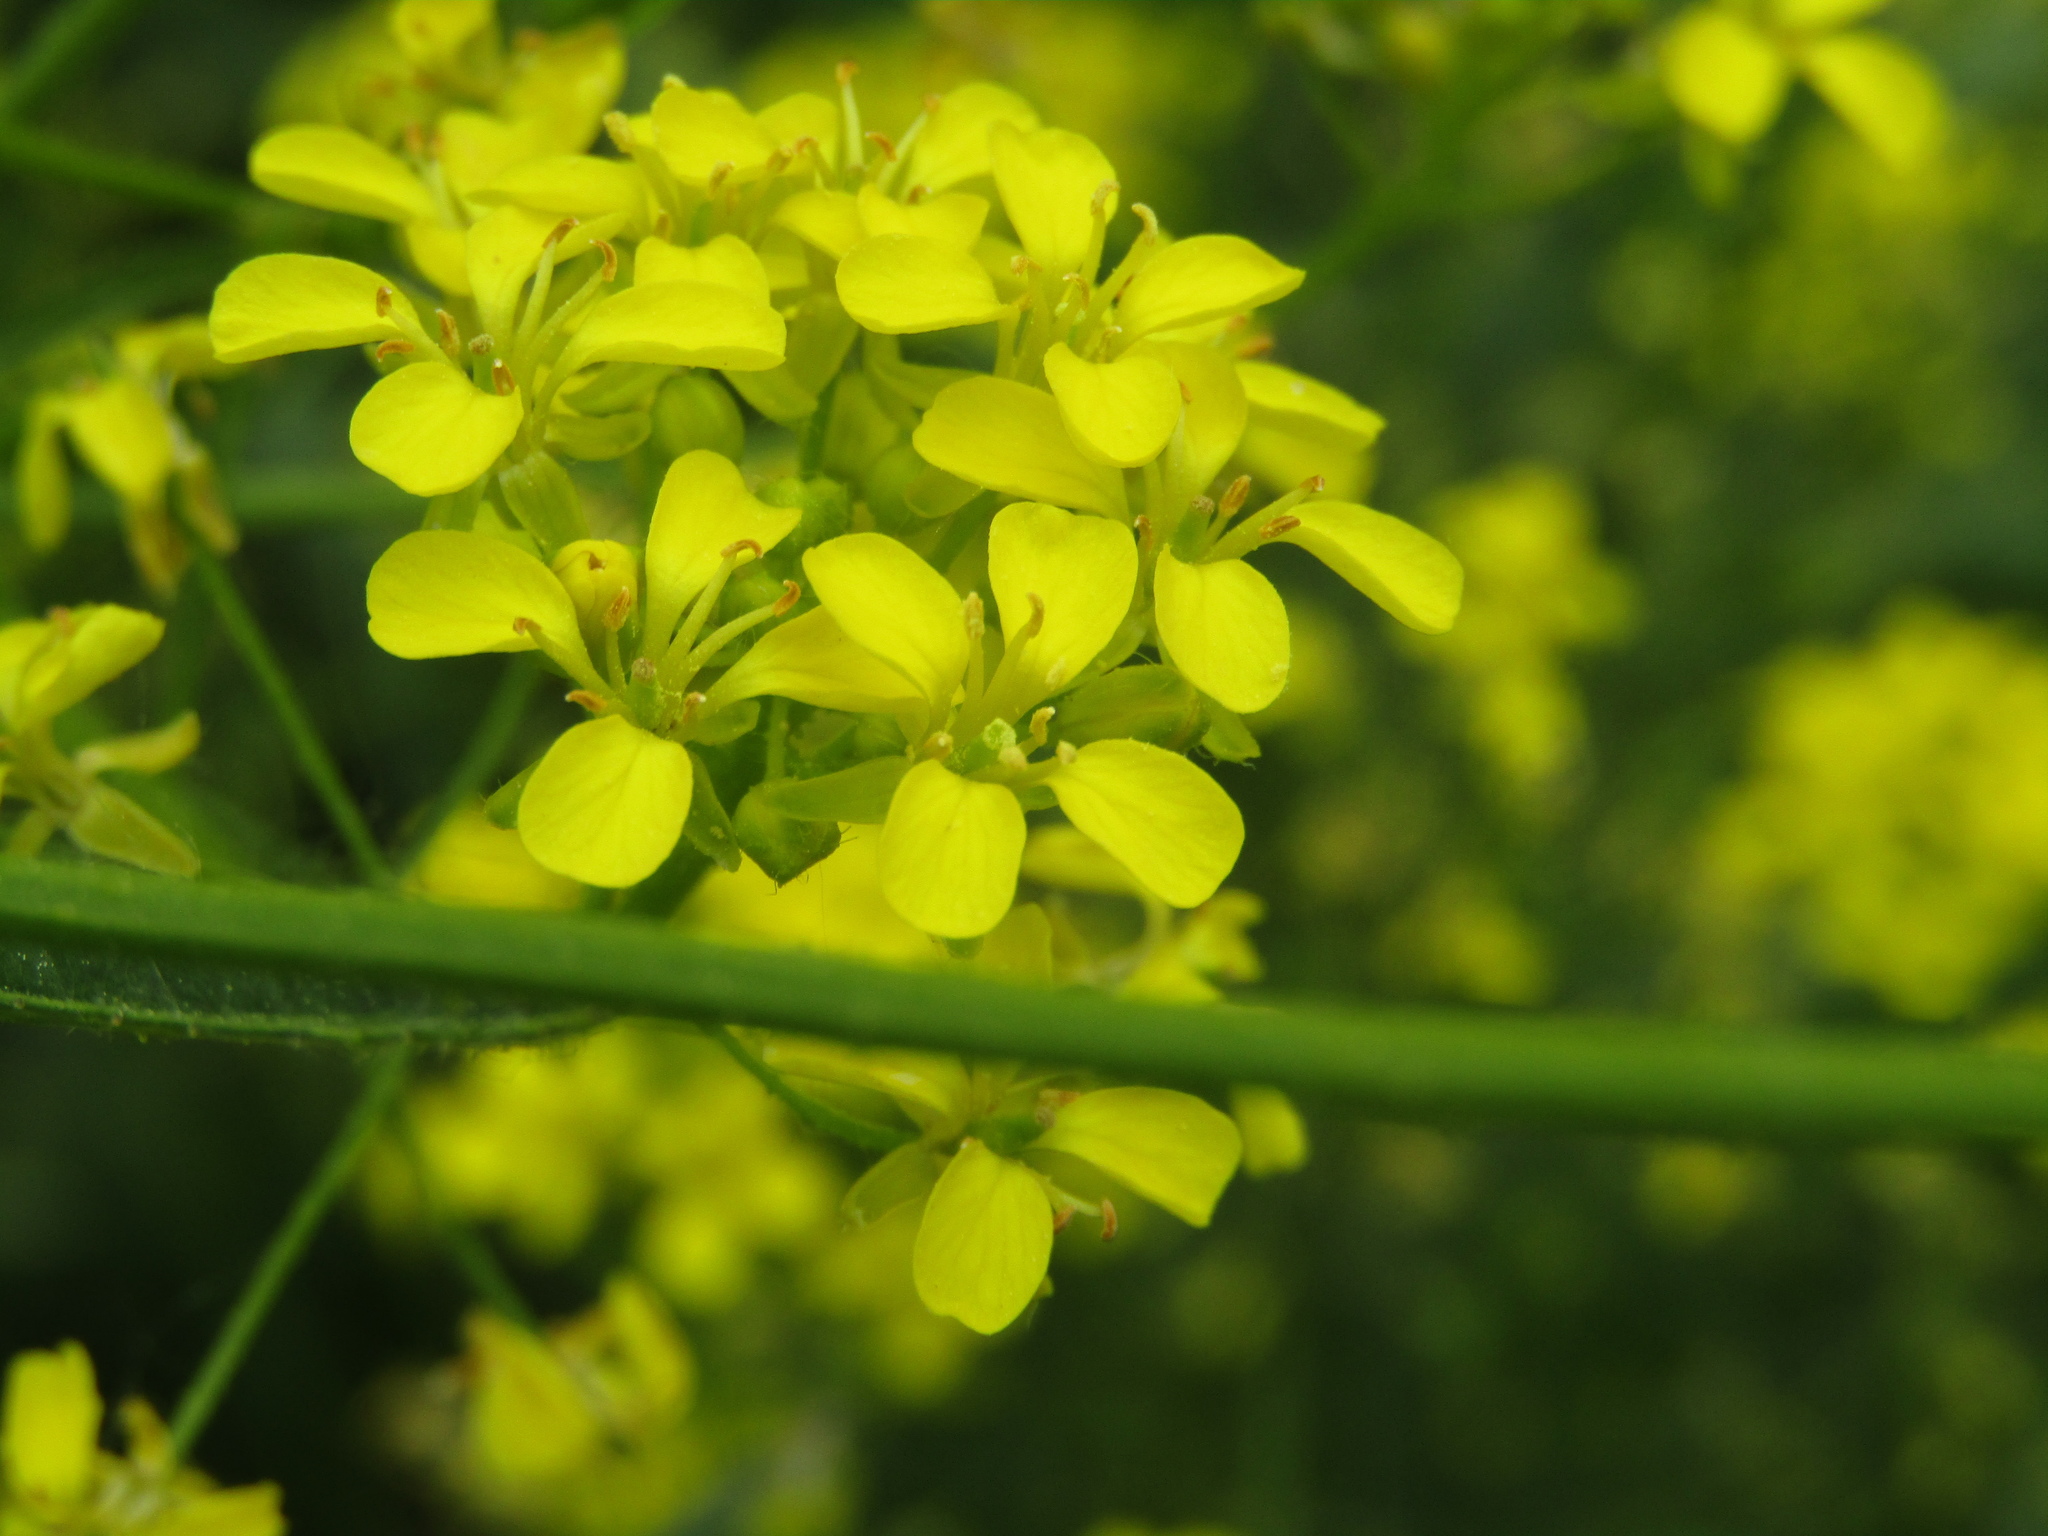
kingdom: Plantae
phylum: Tracheophyta
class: Magnoliopsida
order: Brassicales
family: Brassicaceae
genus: Bunias
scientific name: Bunias orientalis
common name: Warty-cabbage
